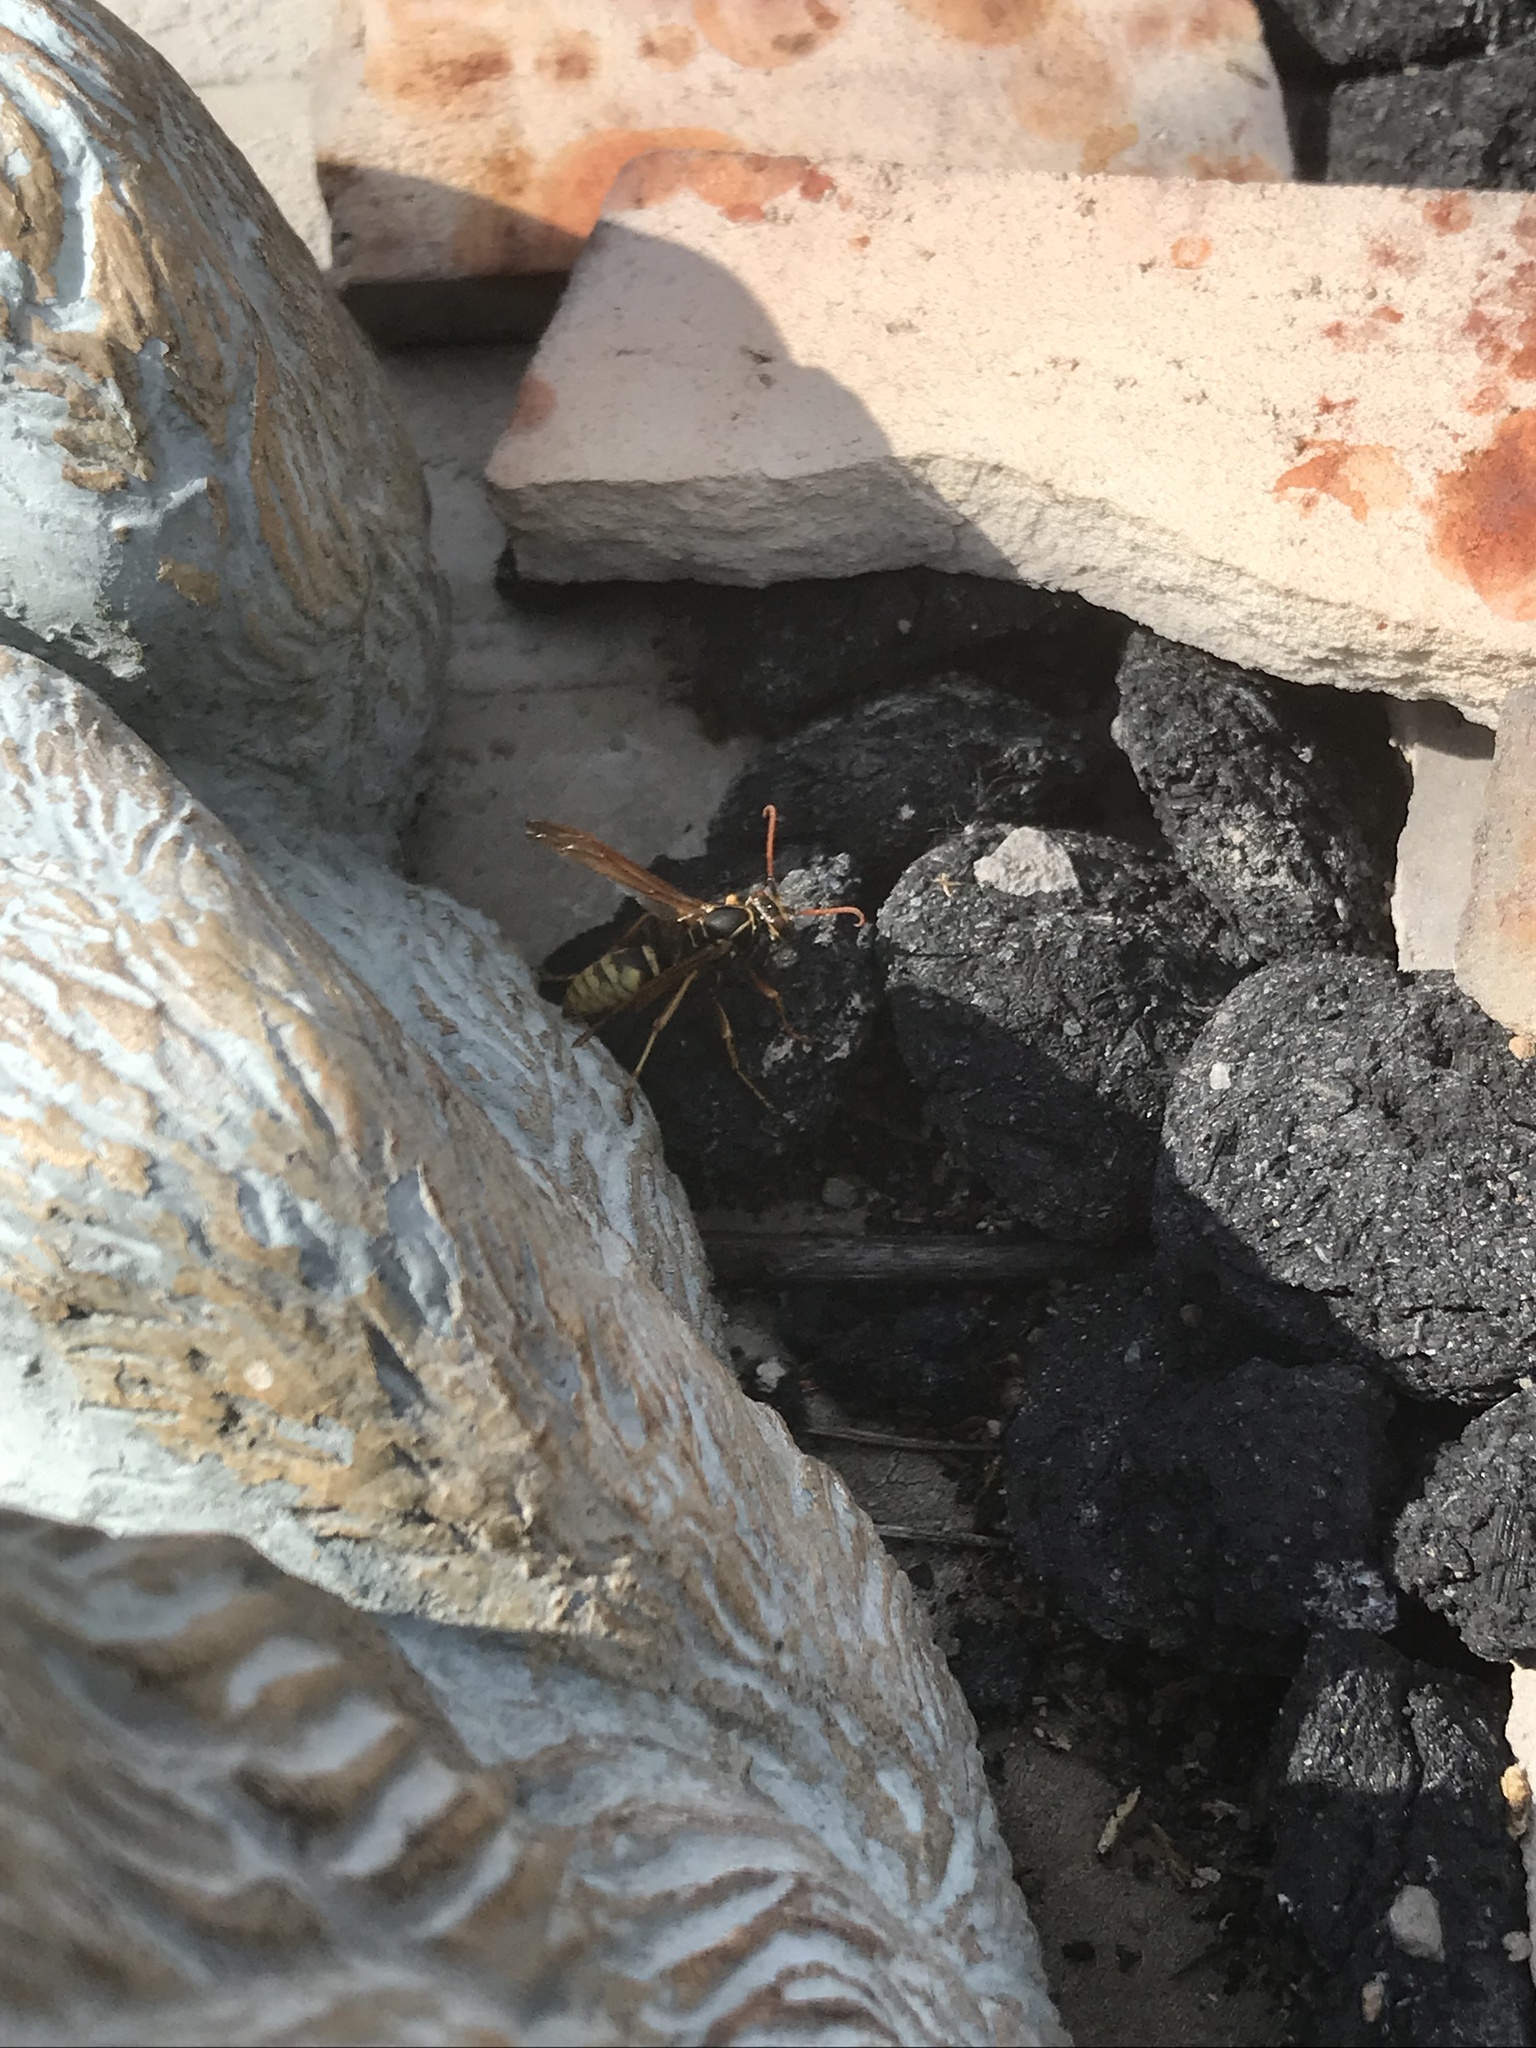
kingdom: Animalia
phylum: Arthropoda
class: Insecta
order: Hymenoptera
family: Eumenidae
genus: Polistes
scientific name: Polistes aurifer
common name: Paper wasp
